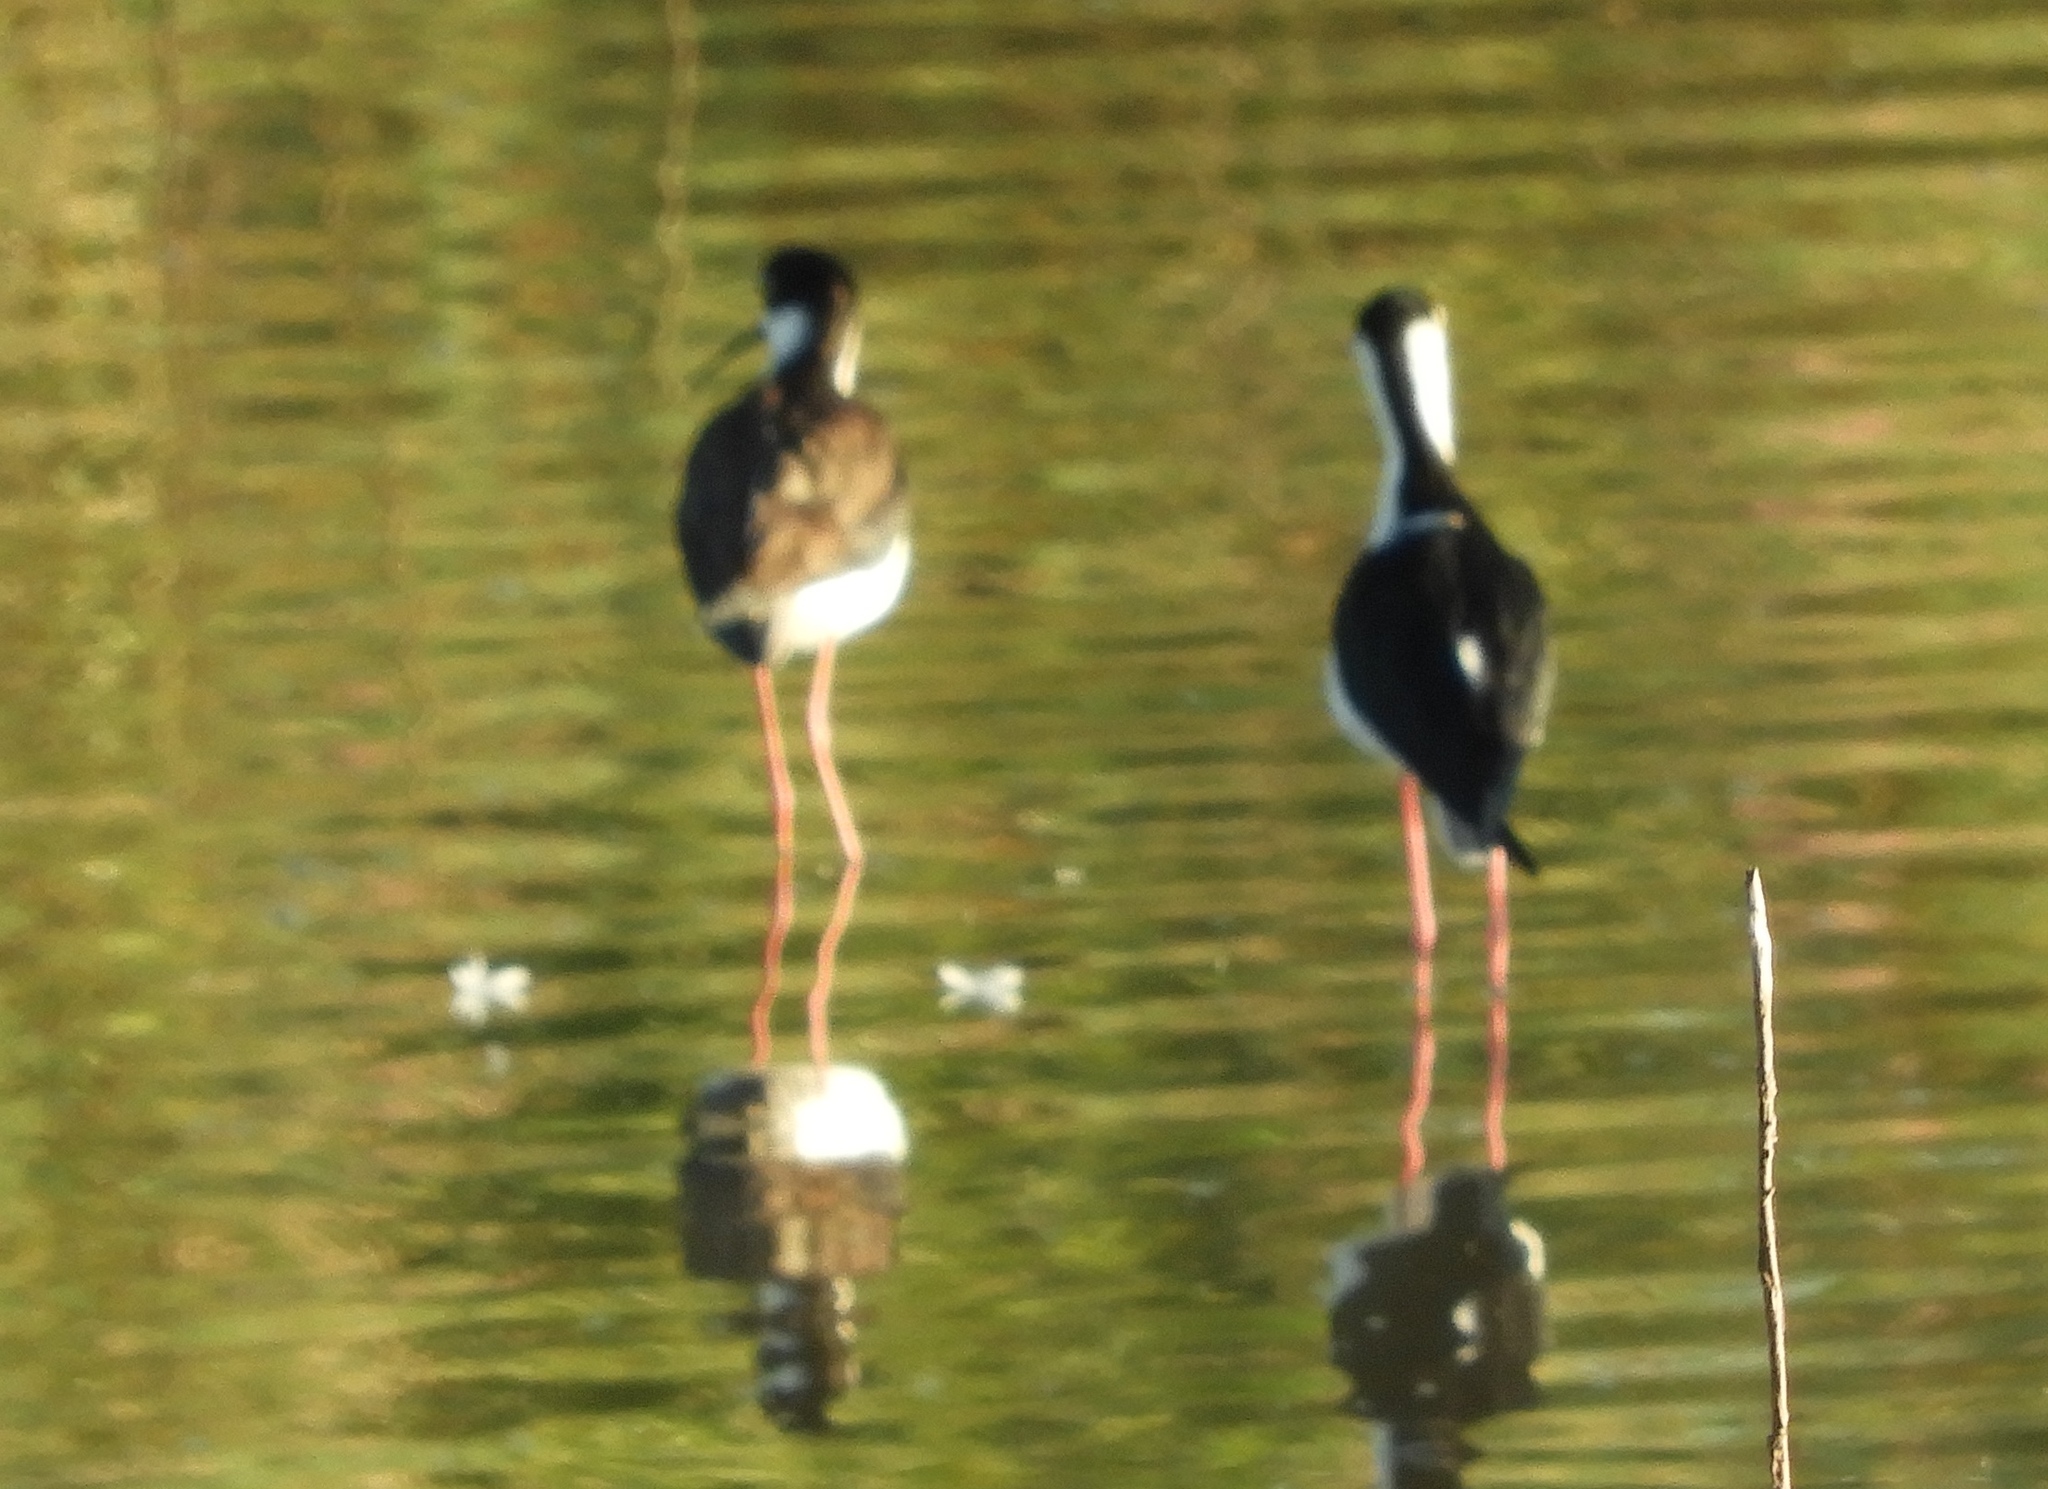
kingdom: Animalia
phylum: Chordata
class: Aves
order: Charadriiformes
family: Recurvirostridae
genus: Himantopus
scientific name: Himantopus mexicanus
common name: Black-necked stilt
